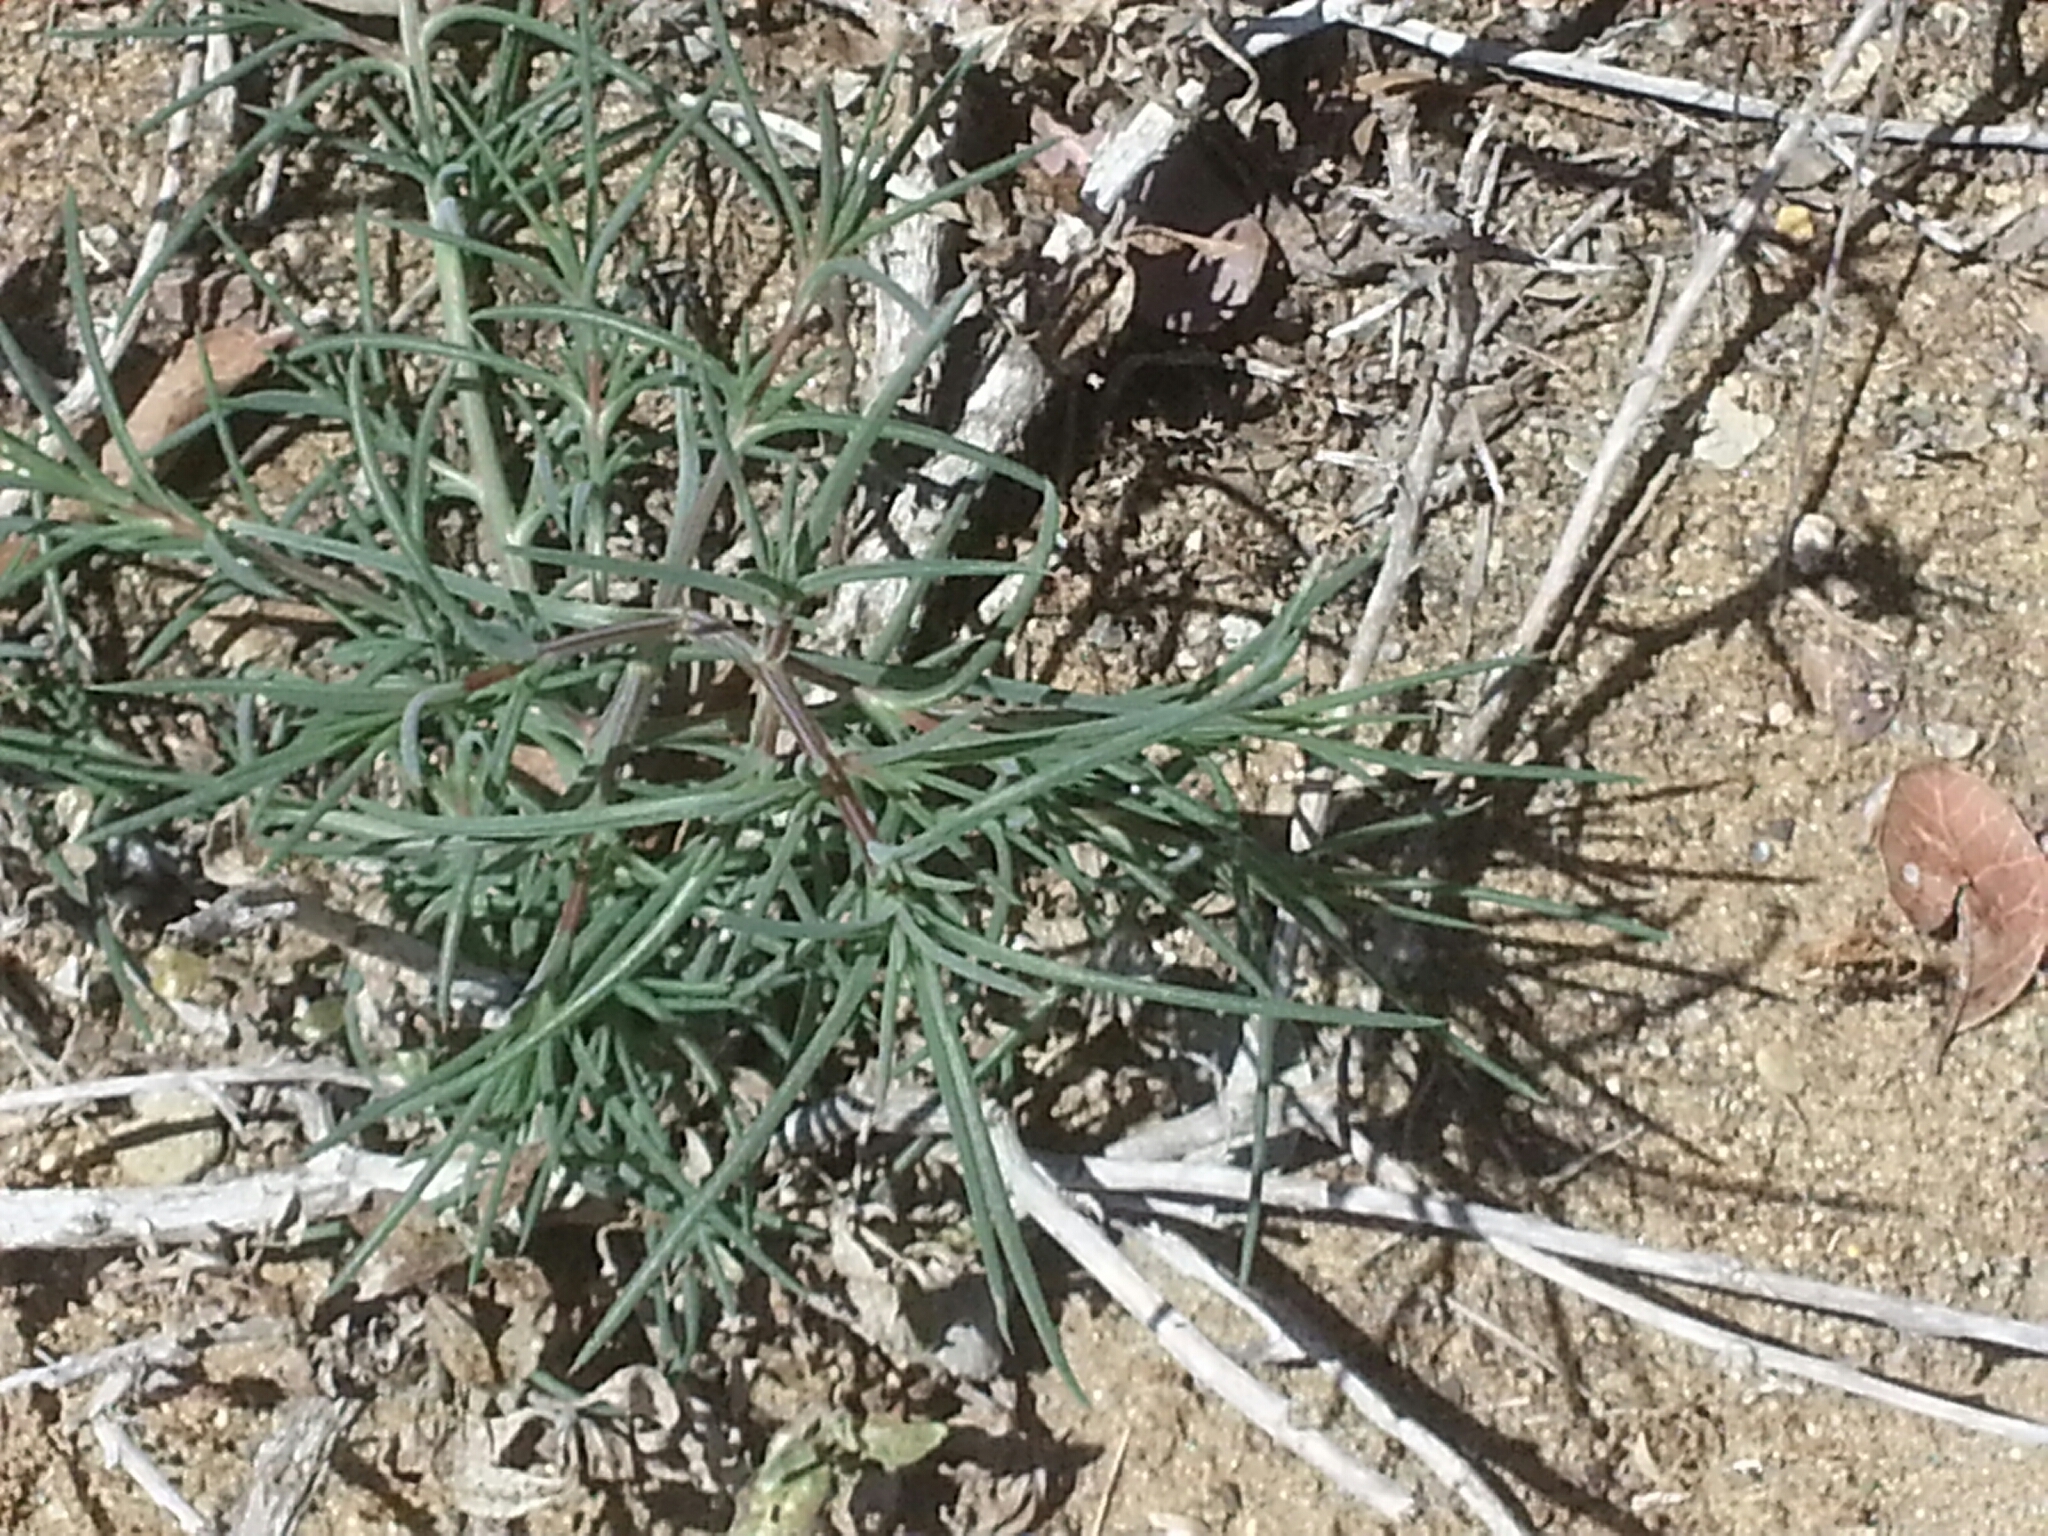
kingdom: Plantae
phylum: Tracheophyta
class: Magnoliopsida
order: Caryophyllales
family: Amaranthaceae
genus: Salsola
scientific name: Salsola australis
